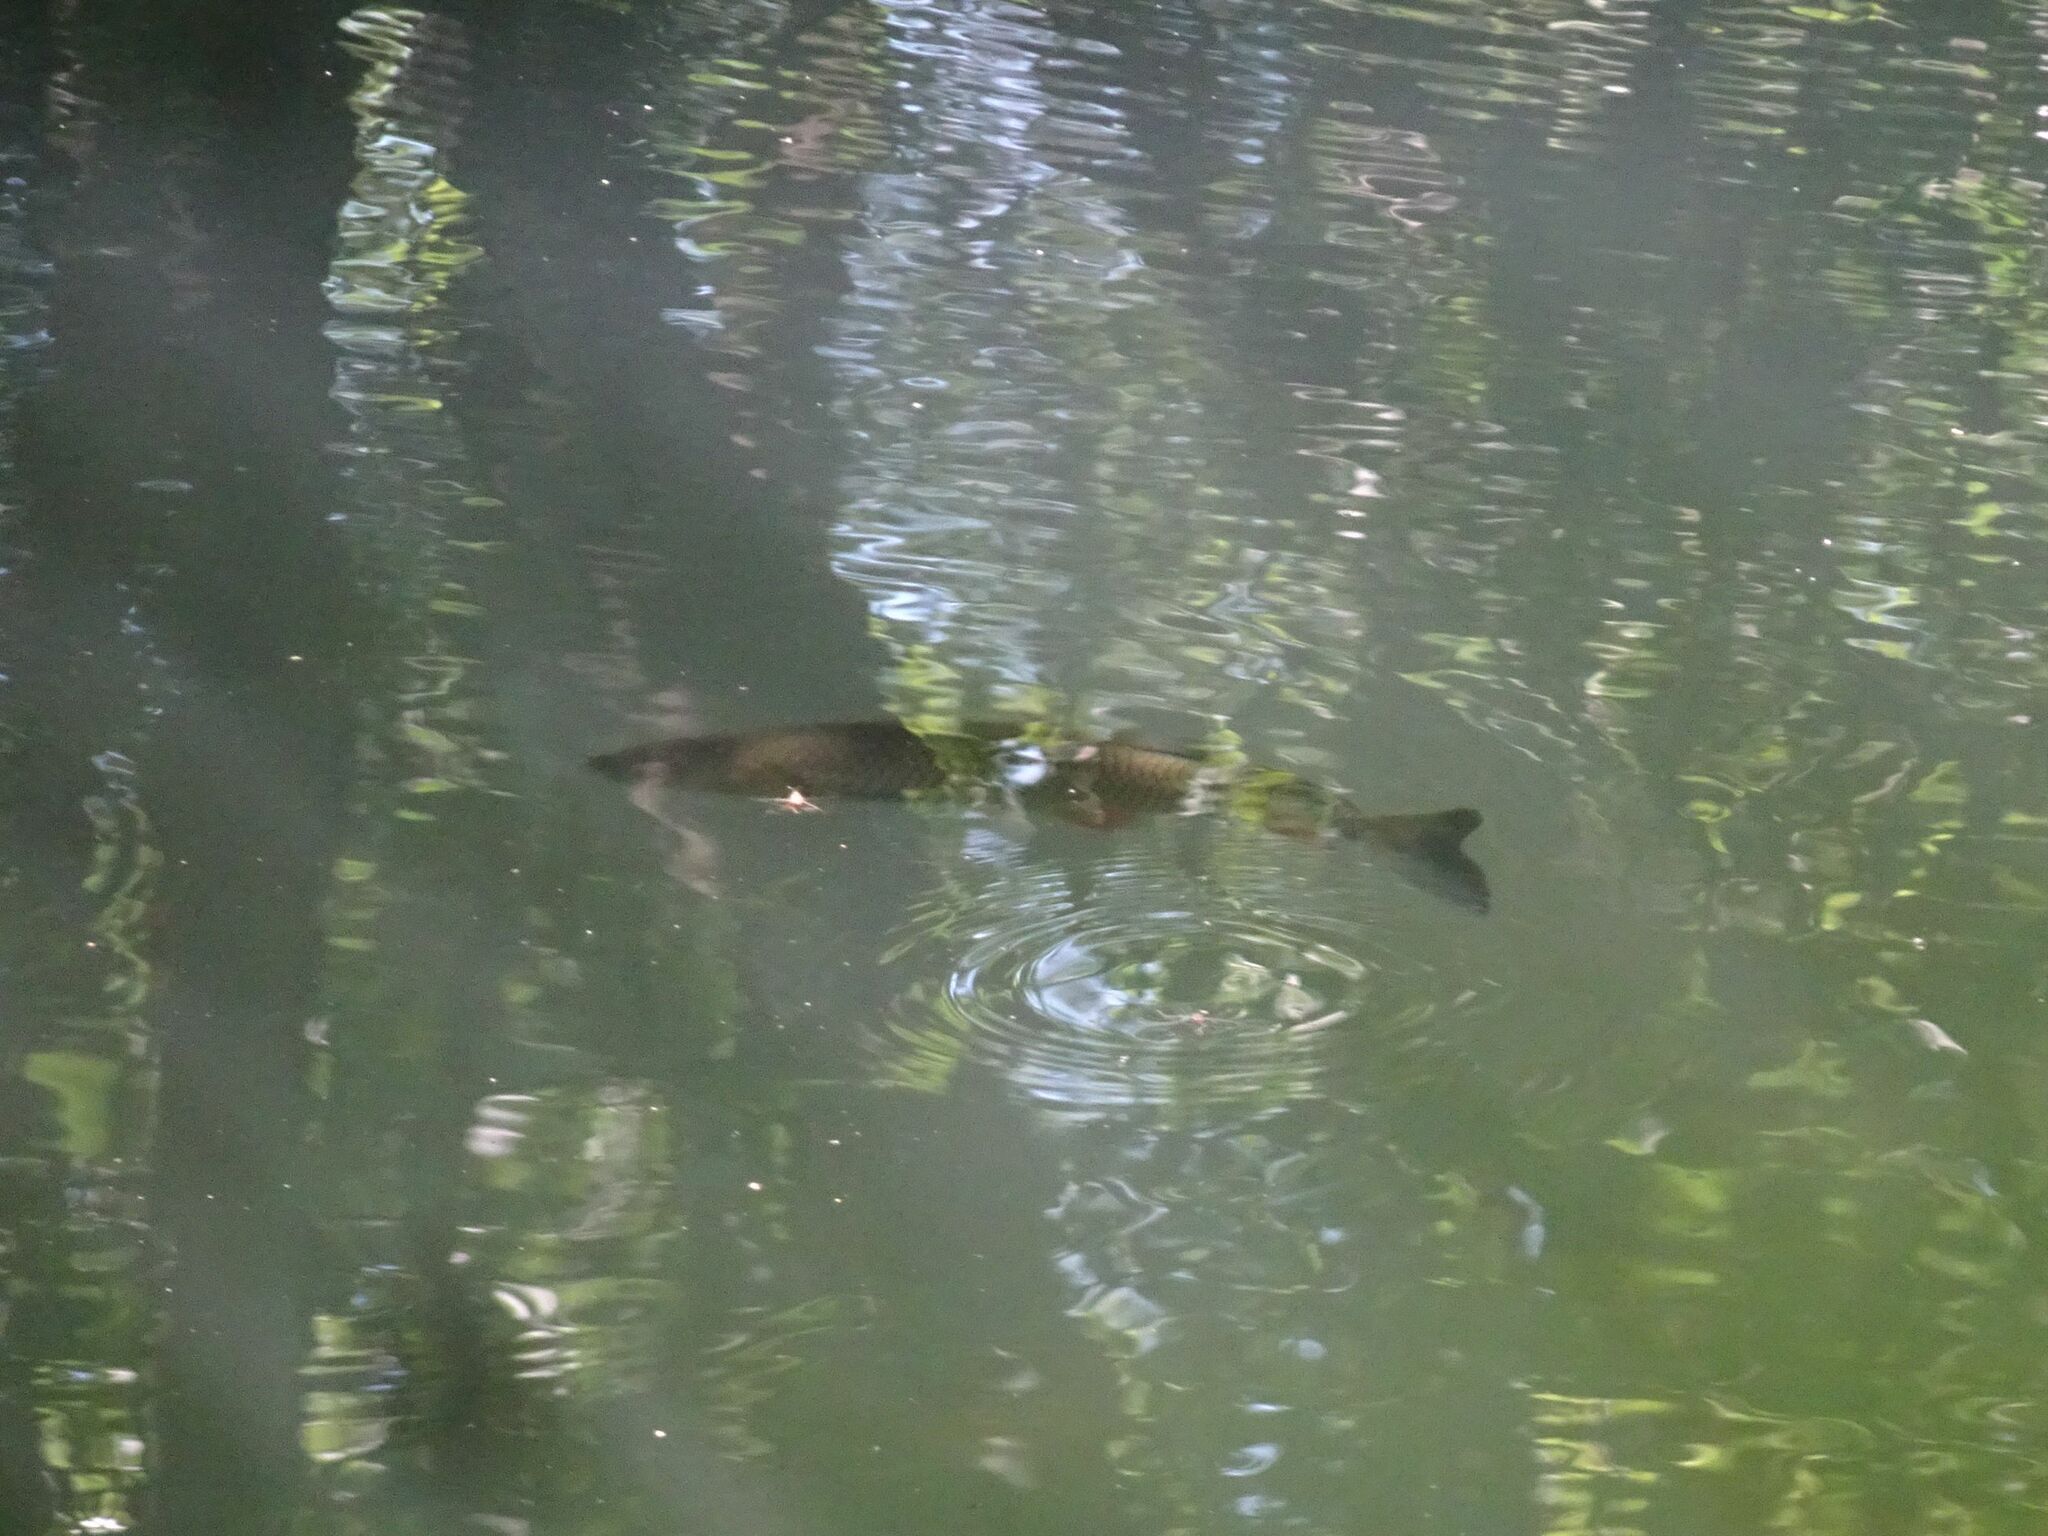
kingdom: Animalia
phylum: Chordata
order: Cypriniformes
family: Cyprinidae
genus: Squalius
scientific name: Squalius cephalus
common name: Chub
